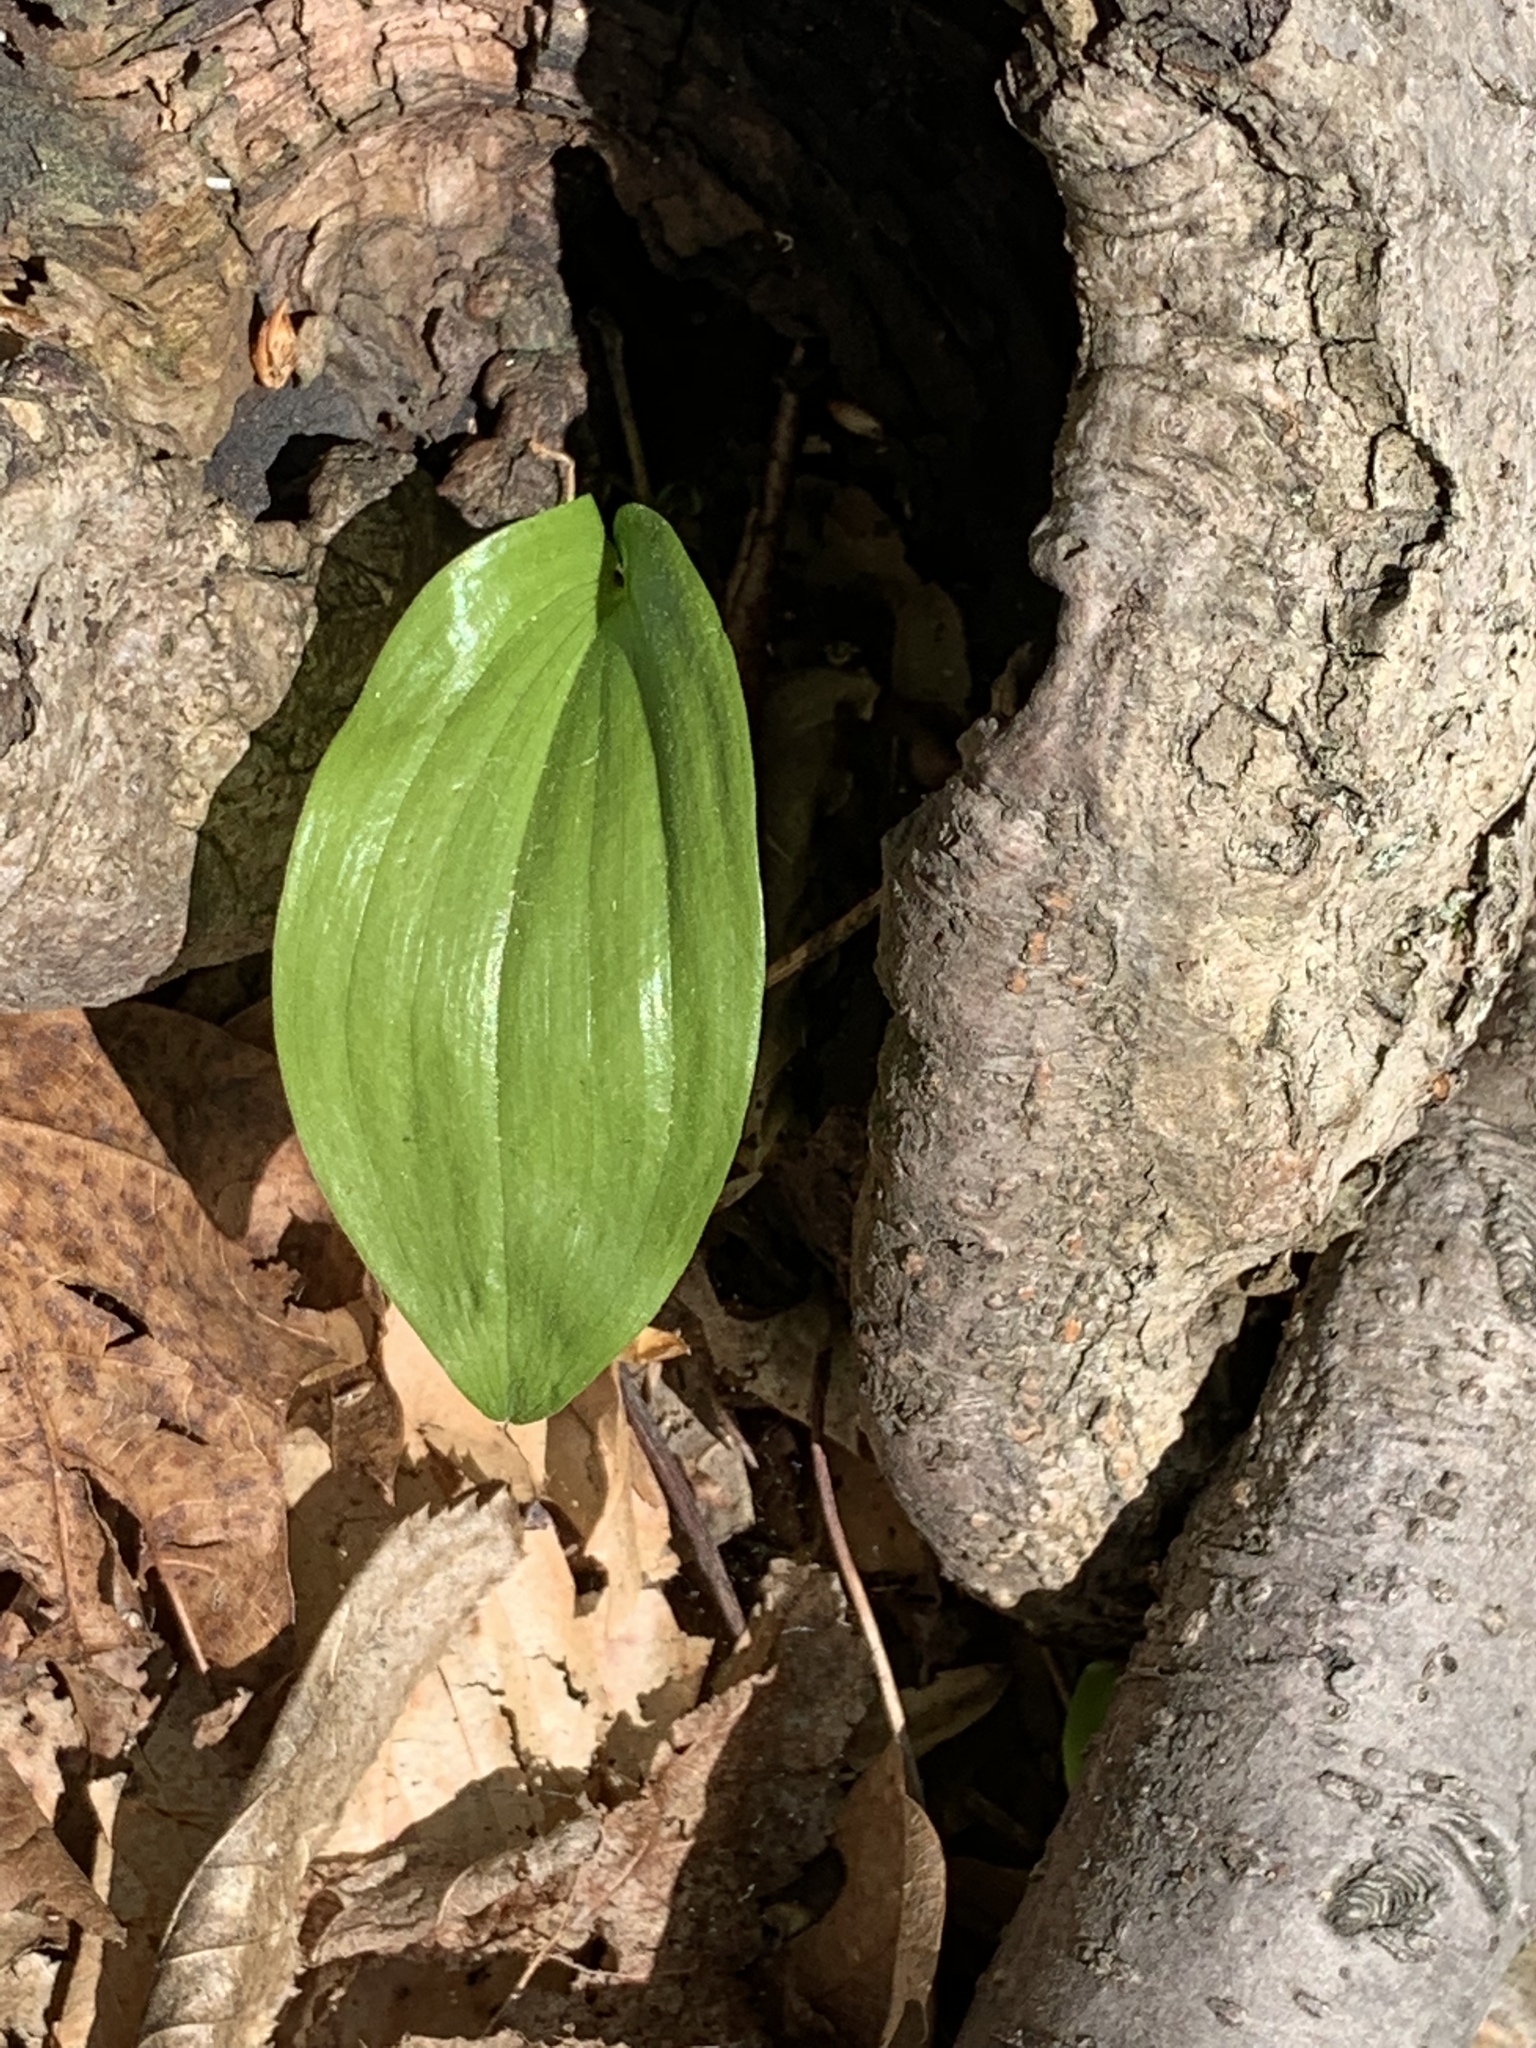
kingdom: Plantae
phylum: Tracheophyta
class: Liliopsida
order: Asparagales
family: Asparagaceae
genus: Maianthemum
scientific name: Maianthemum canadense
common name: False lily-of-the-valley
